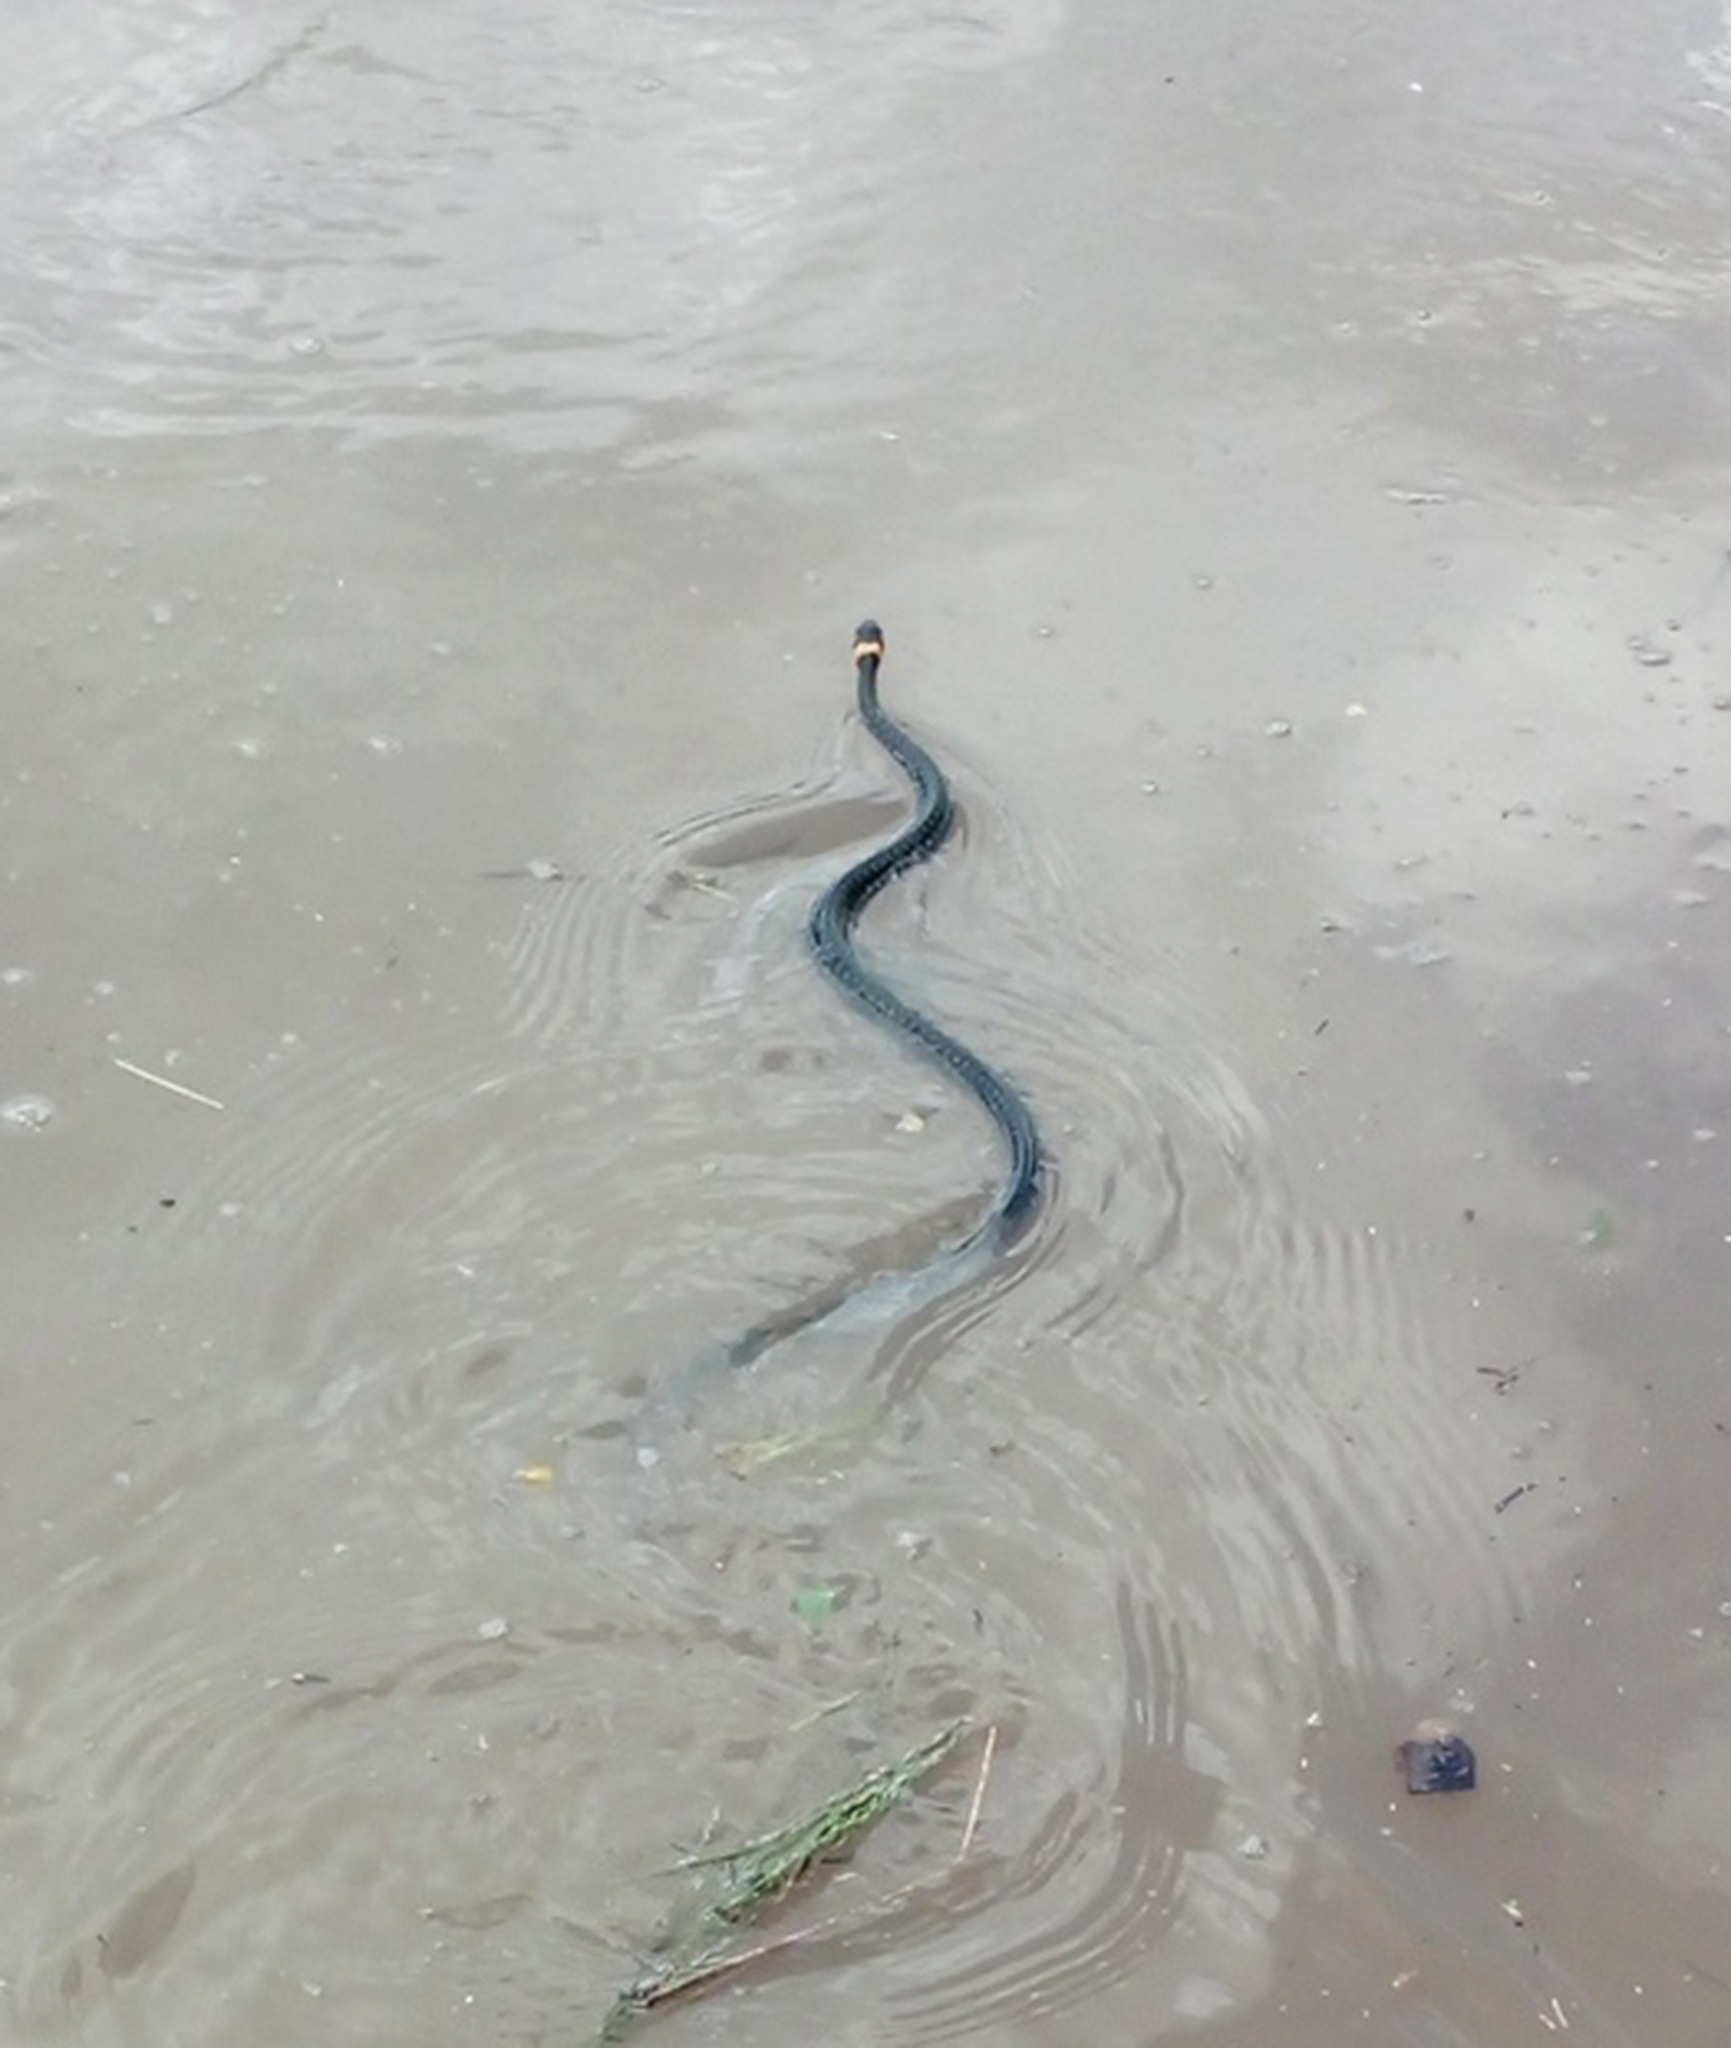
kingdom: Animalia
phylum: Chordata
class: Squamata
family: Colubridae
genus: Natrix
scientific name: Natrix natrix
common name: Grass snake
